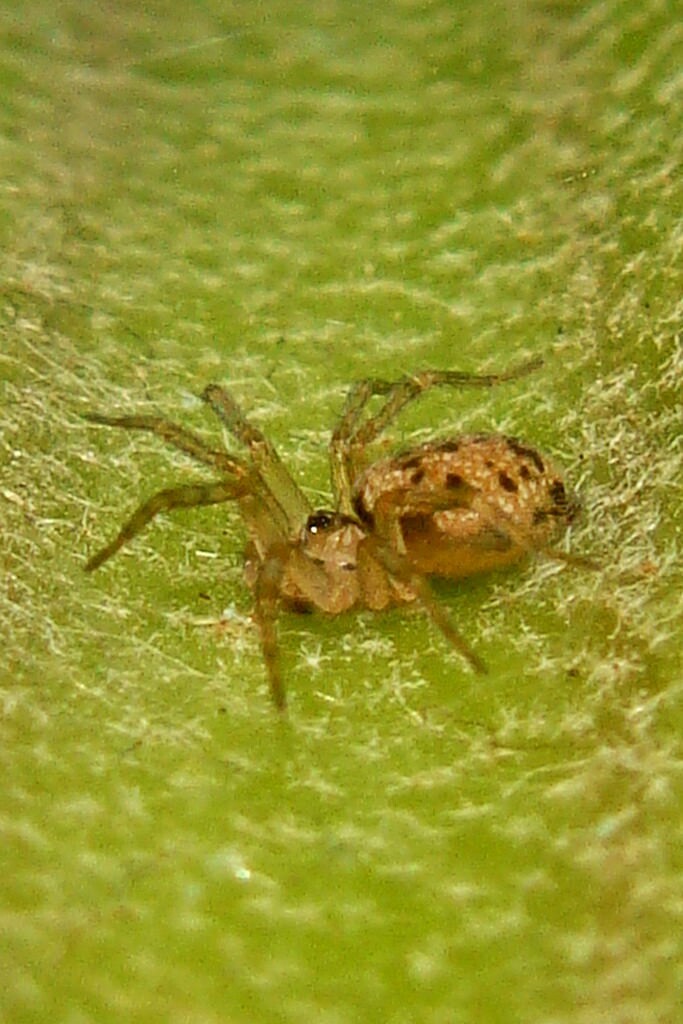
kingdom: Animalia
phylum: Arthropoda
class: Arachnida
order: Araneae
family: Oecobiidae
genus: Oecobius
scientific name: Oecobius navus
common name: Flatmesh weaver
